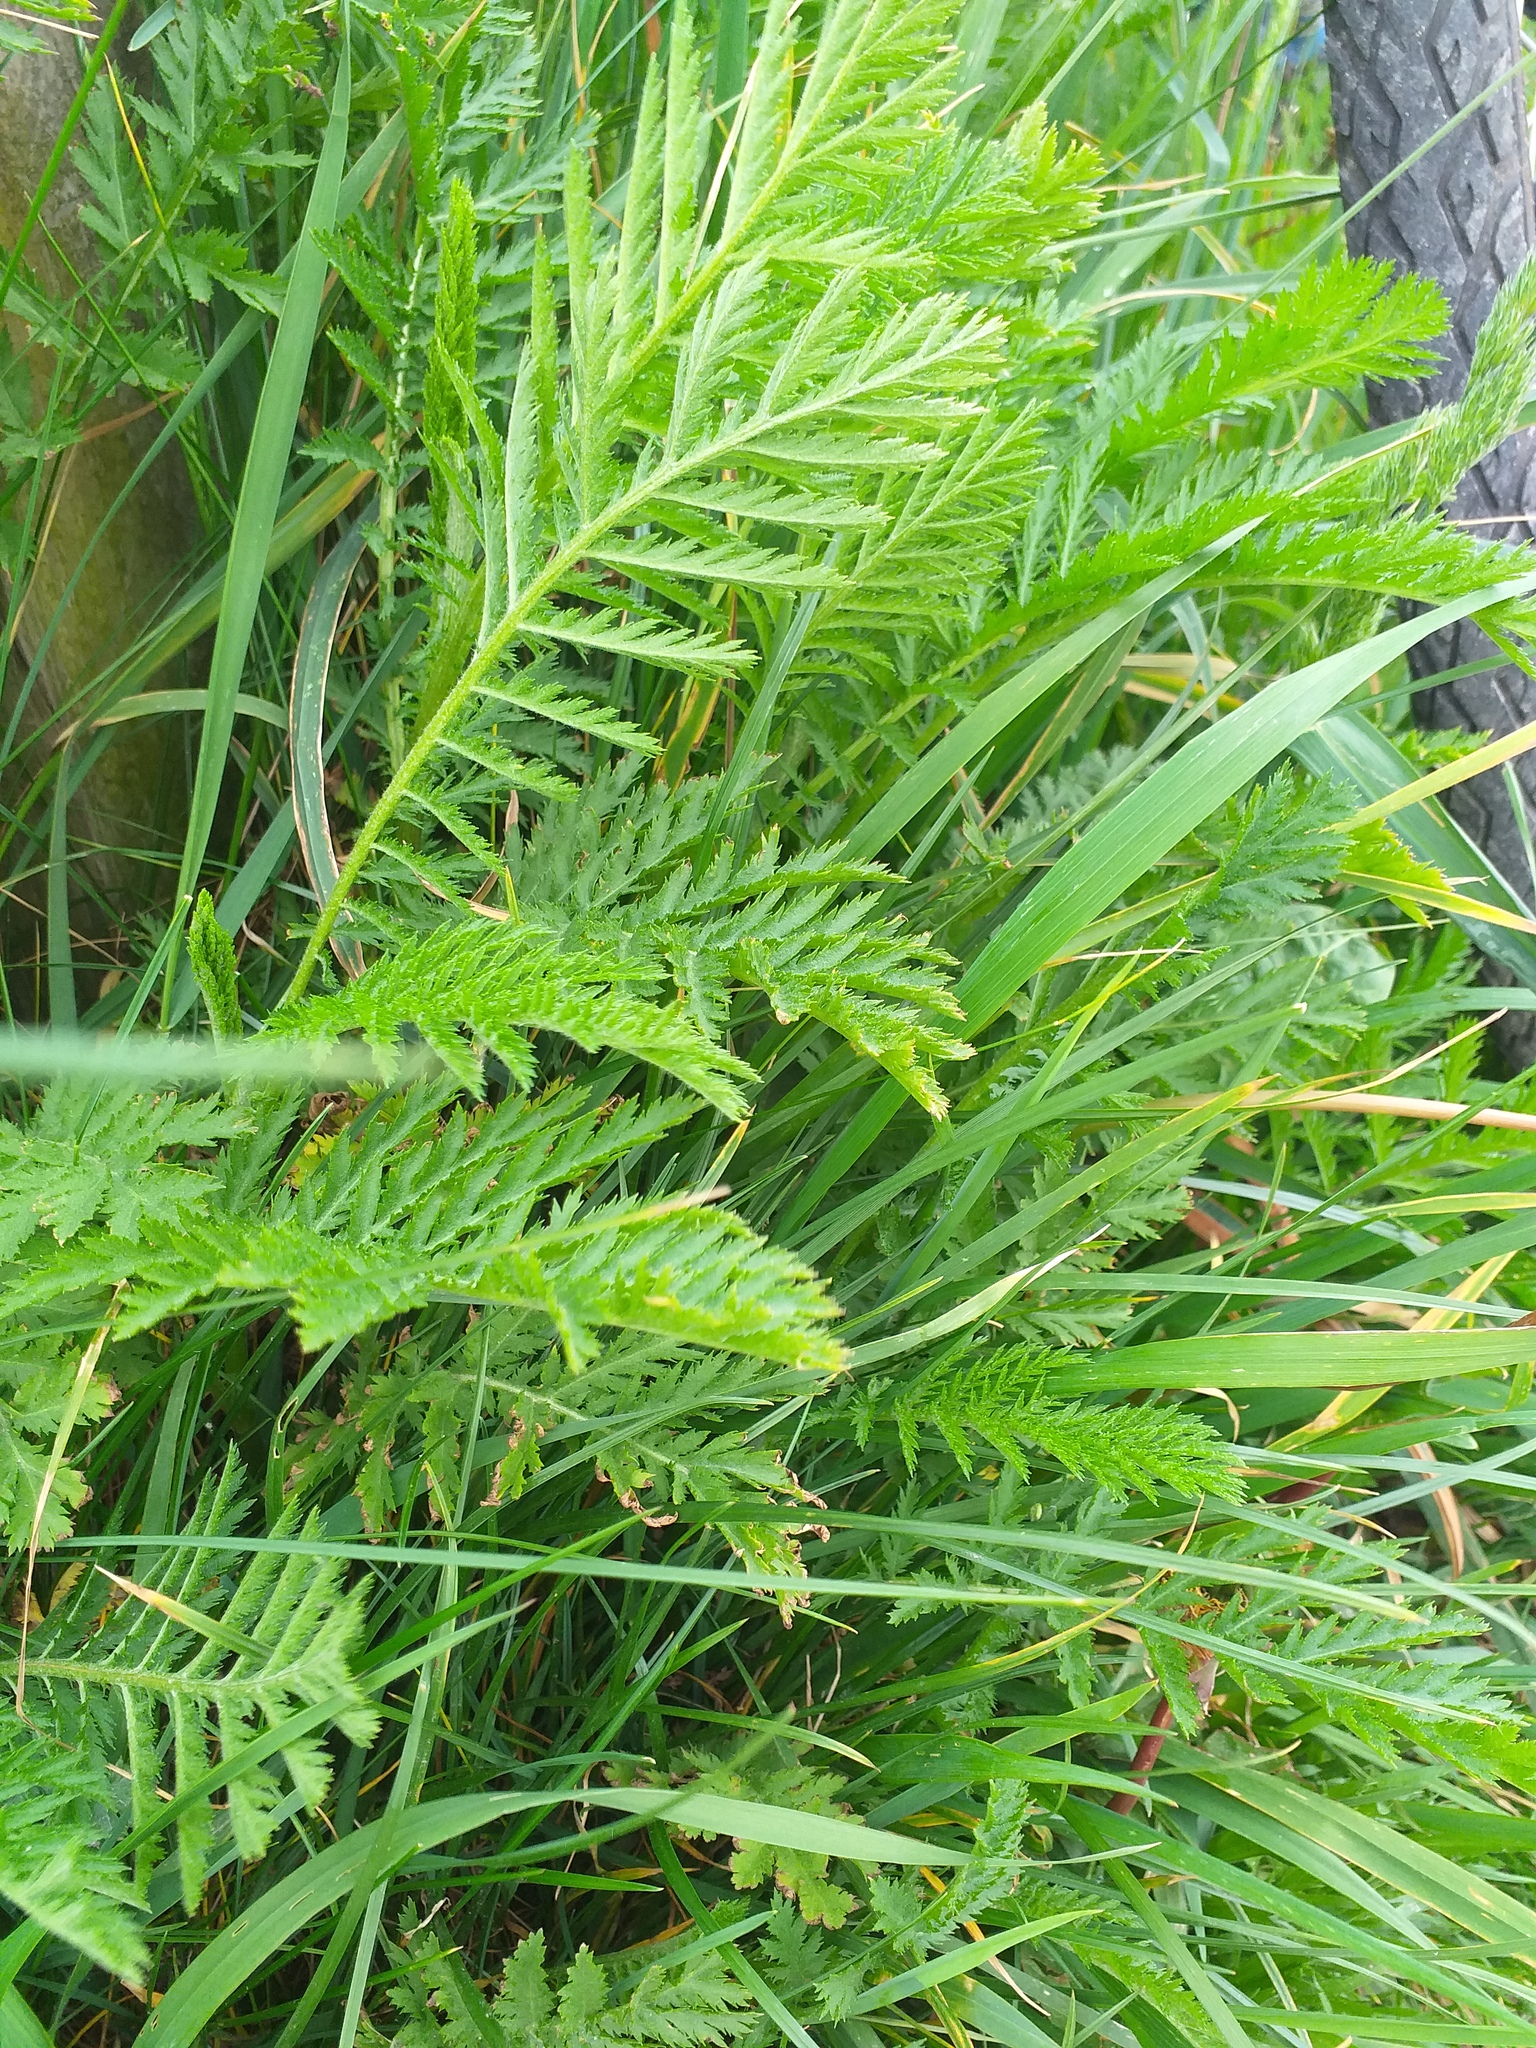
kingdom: Plantae
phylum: Tracheophyta
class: Magnoliopsida
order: Asterales
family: Asteraceae
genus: Tanacetum
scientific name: Tanacetum vulgare
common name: Common tansy
